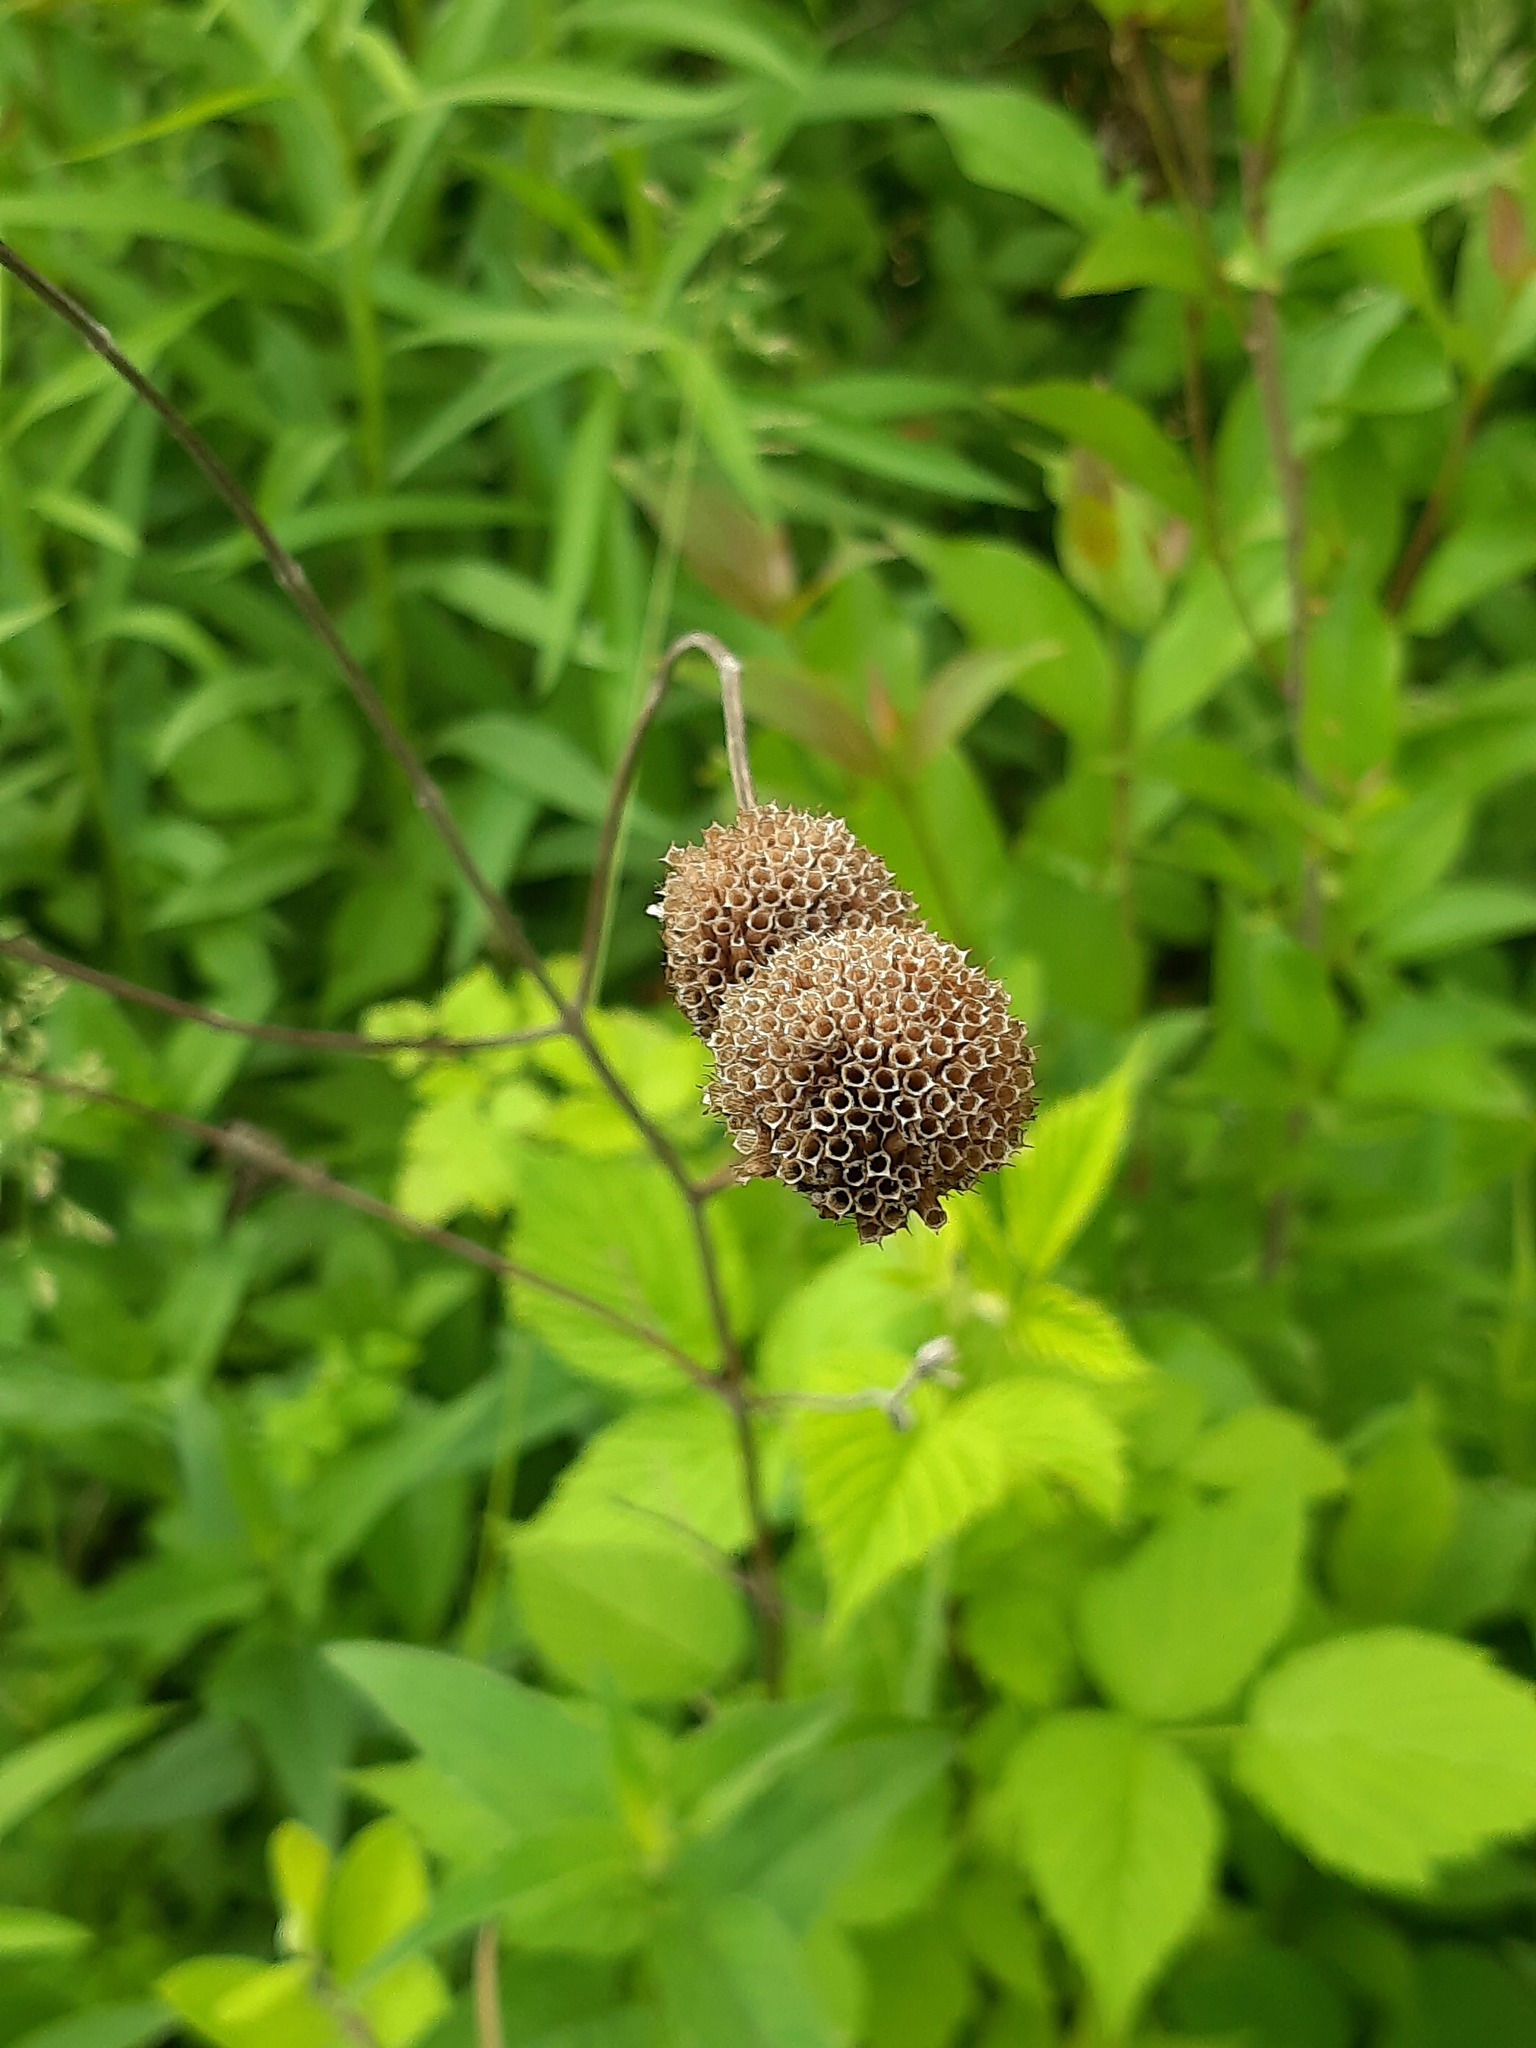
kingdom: Plantae
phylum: Tracheophyta
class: Magnoliopsida
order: Lamiales
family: Lamiaceae
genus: Monarda
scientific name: Monarda fistulosa
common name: Purple beebalm
